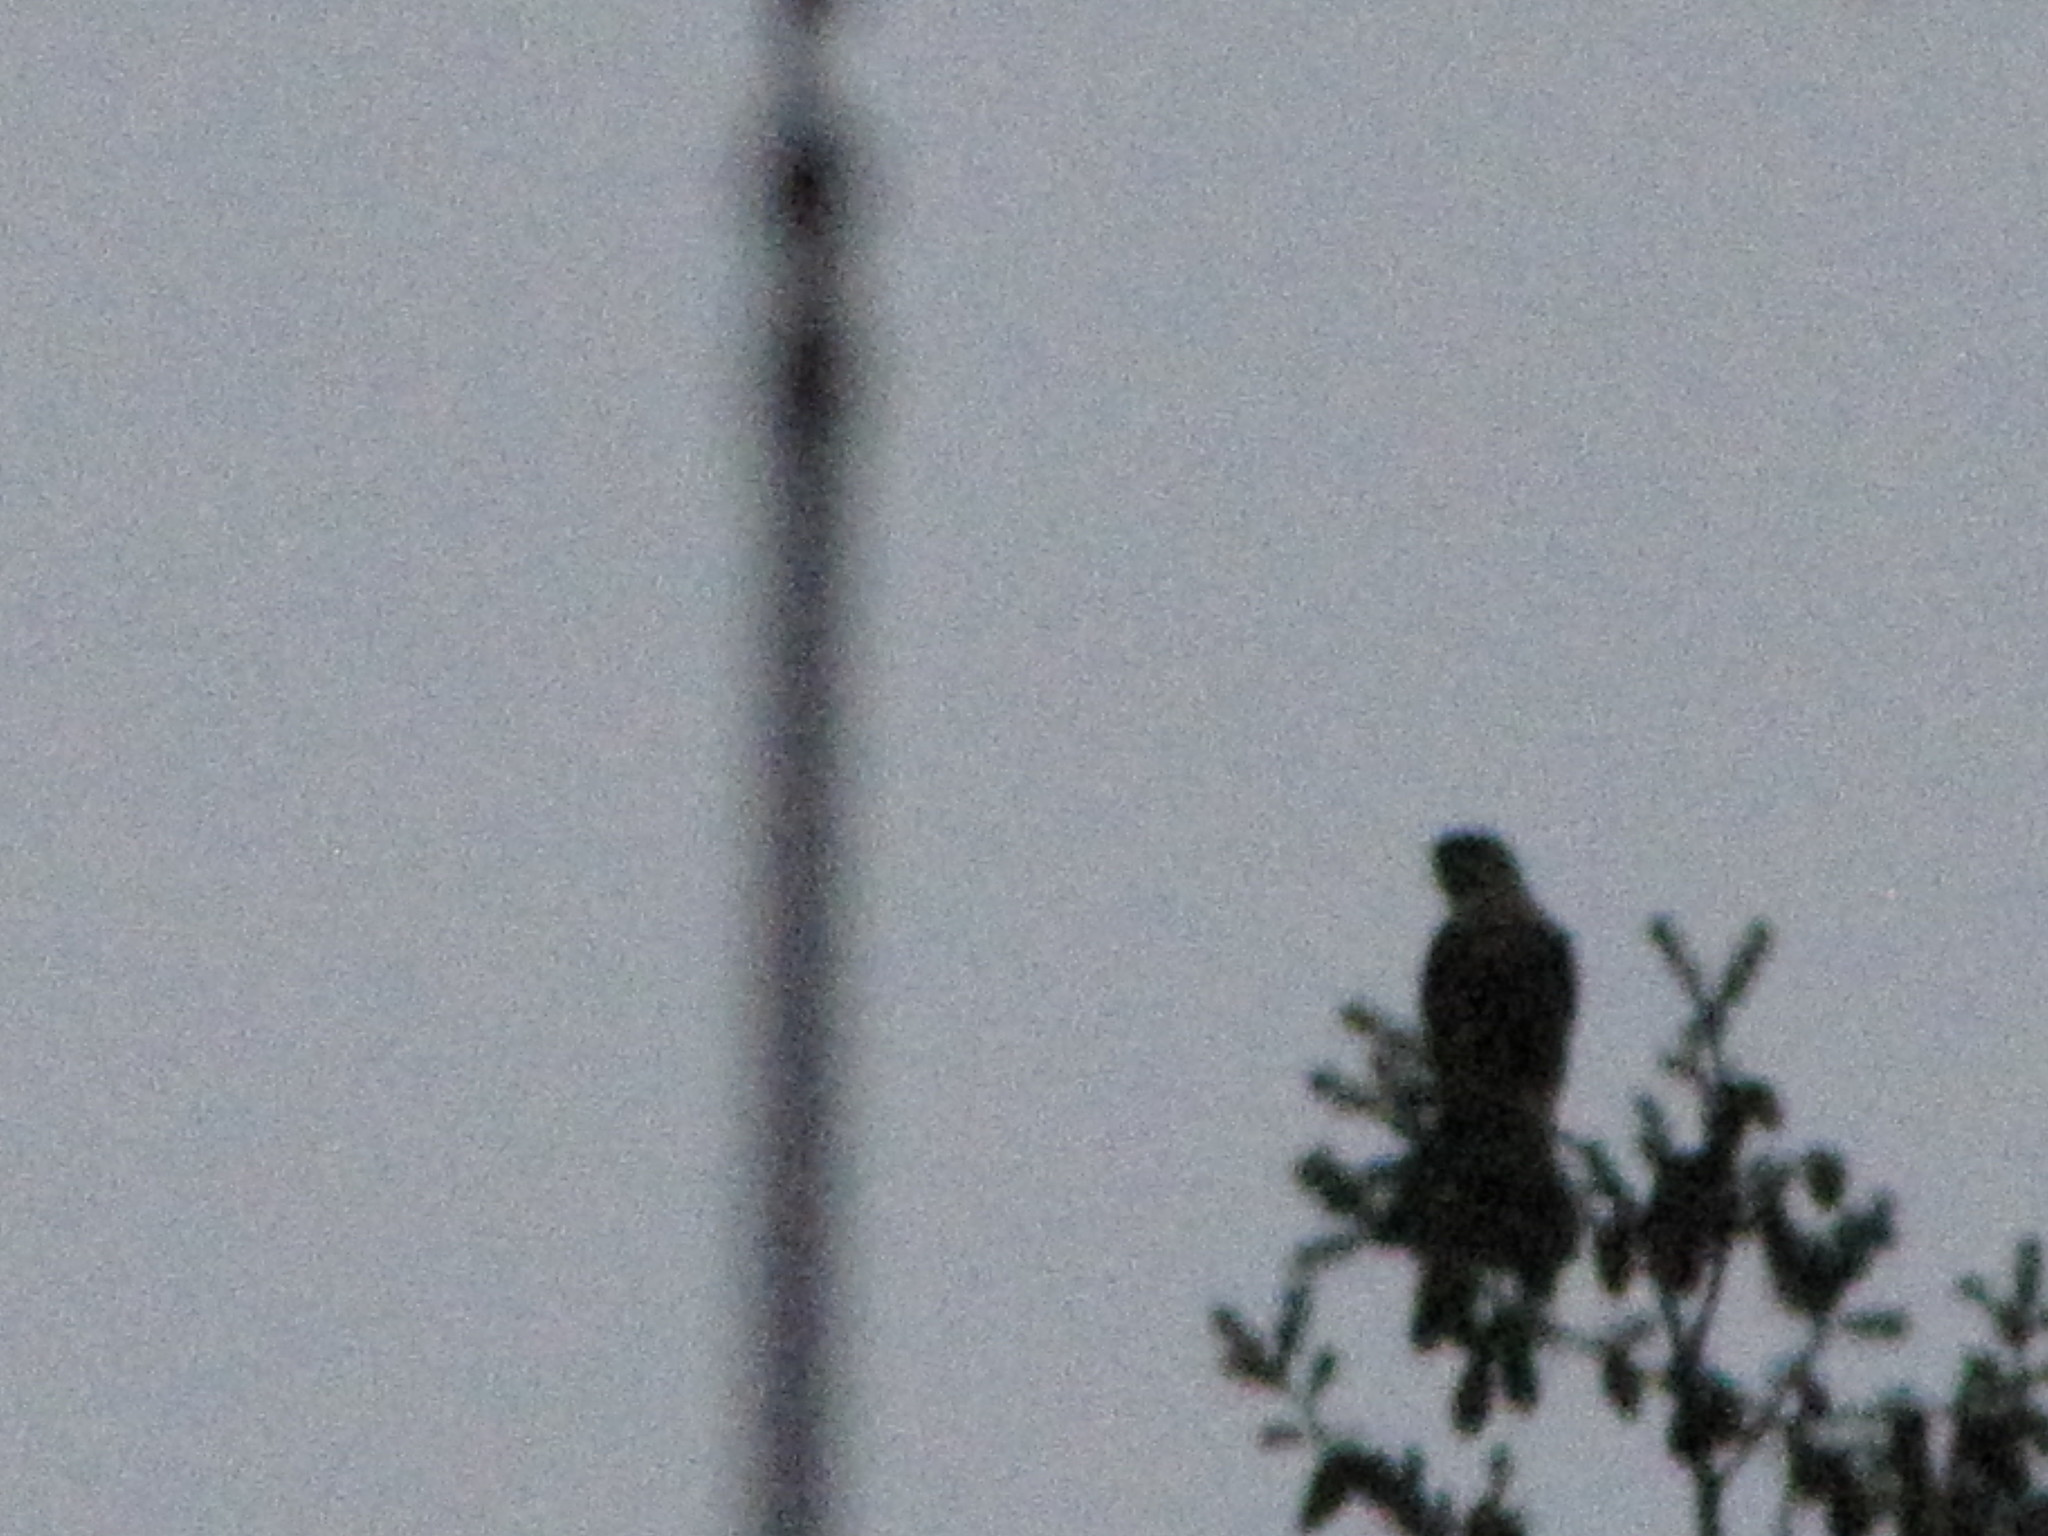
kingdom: Animalia
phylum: Chordata
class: Aves
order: Falconiformes
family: Falconidae
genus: Falco
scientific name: Falco columbarius
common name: Merlin
